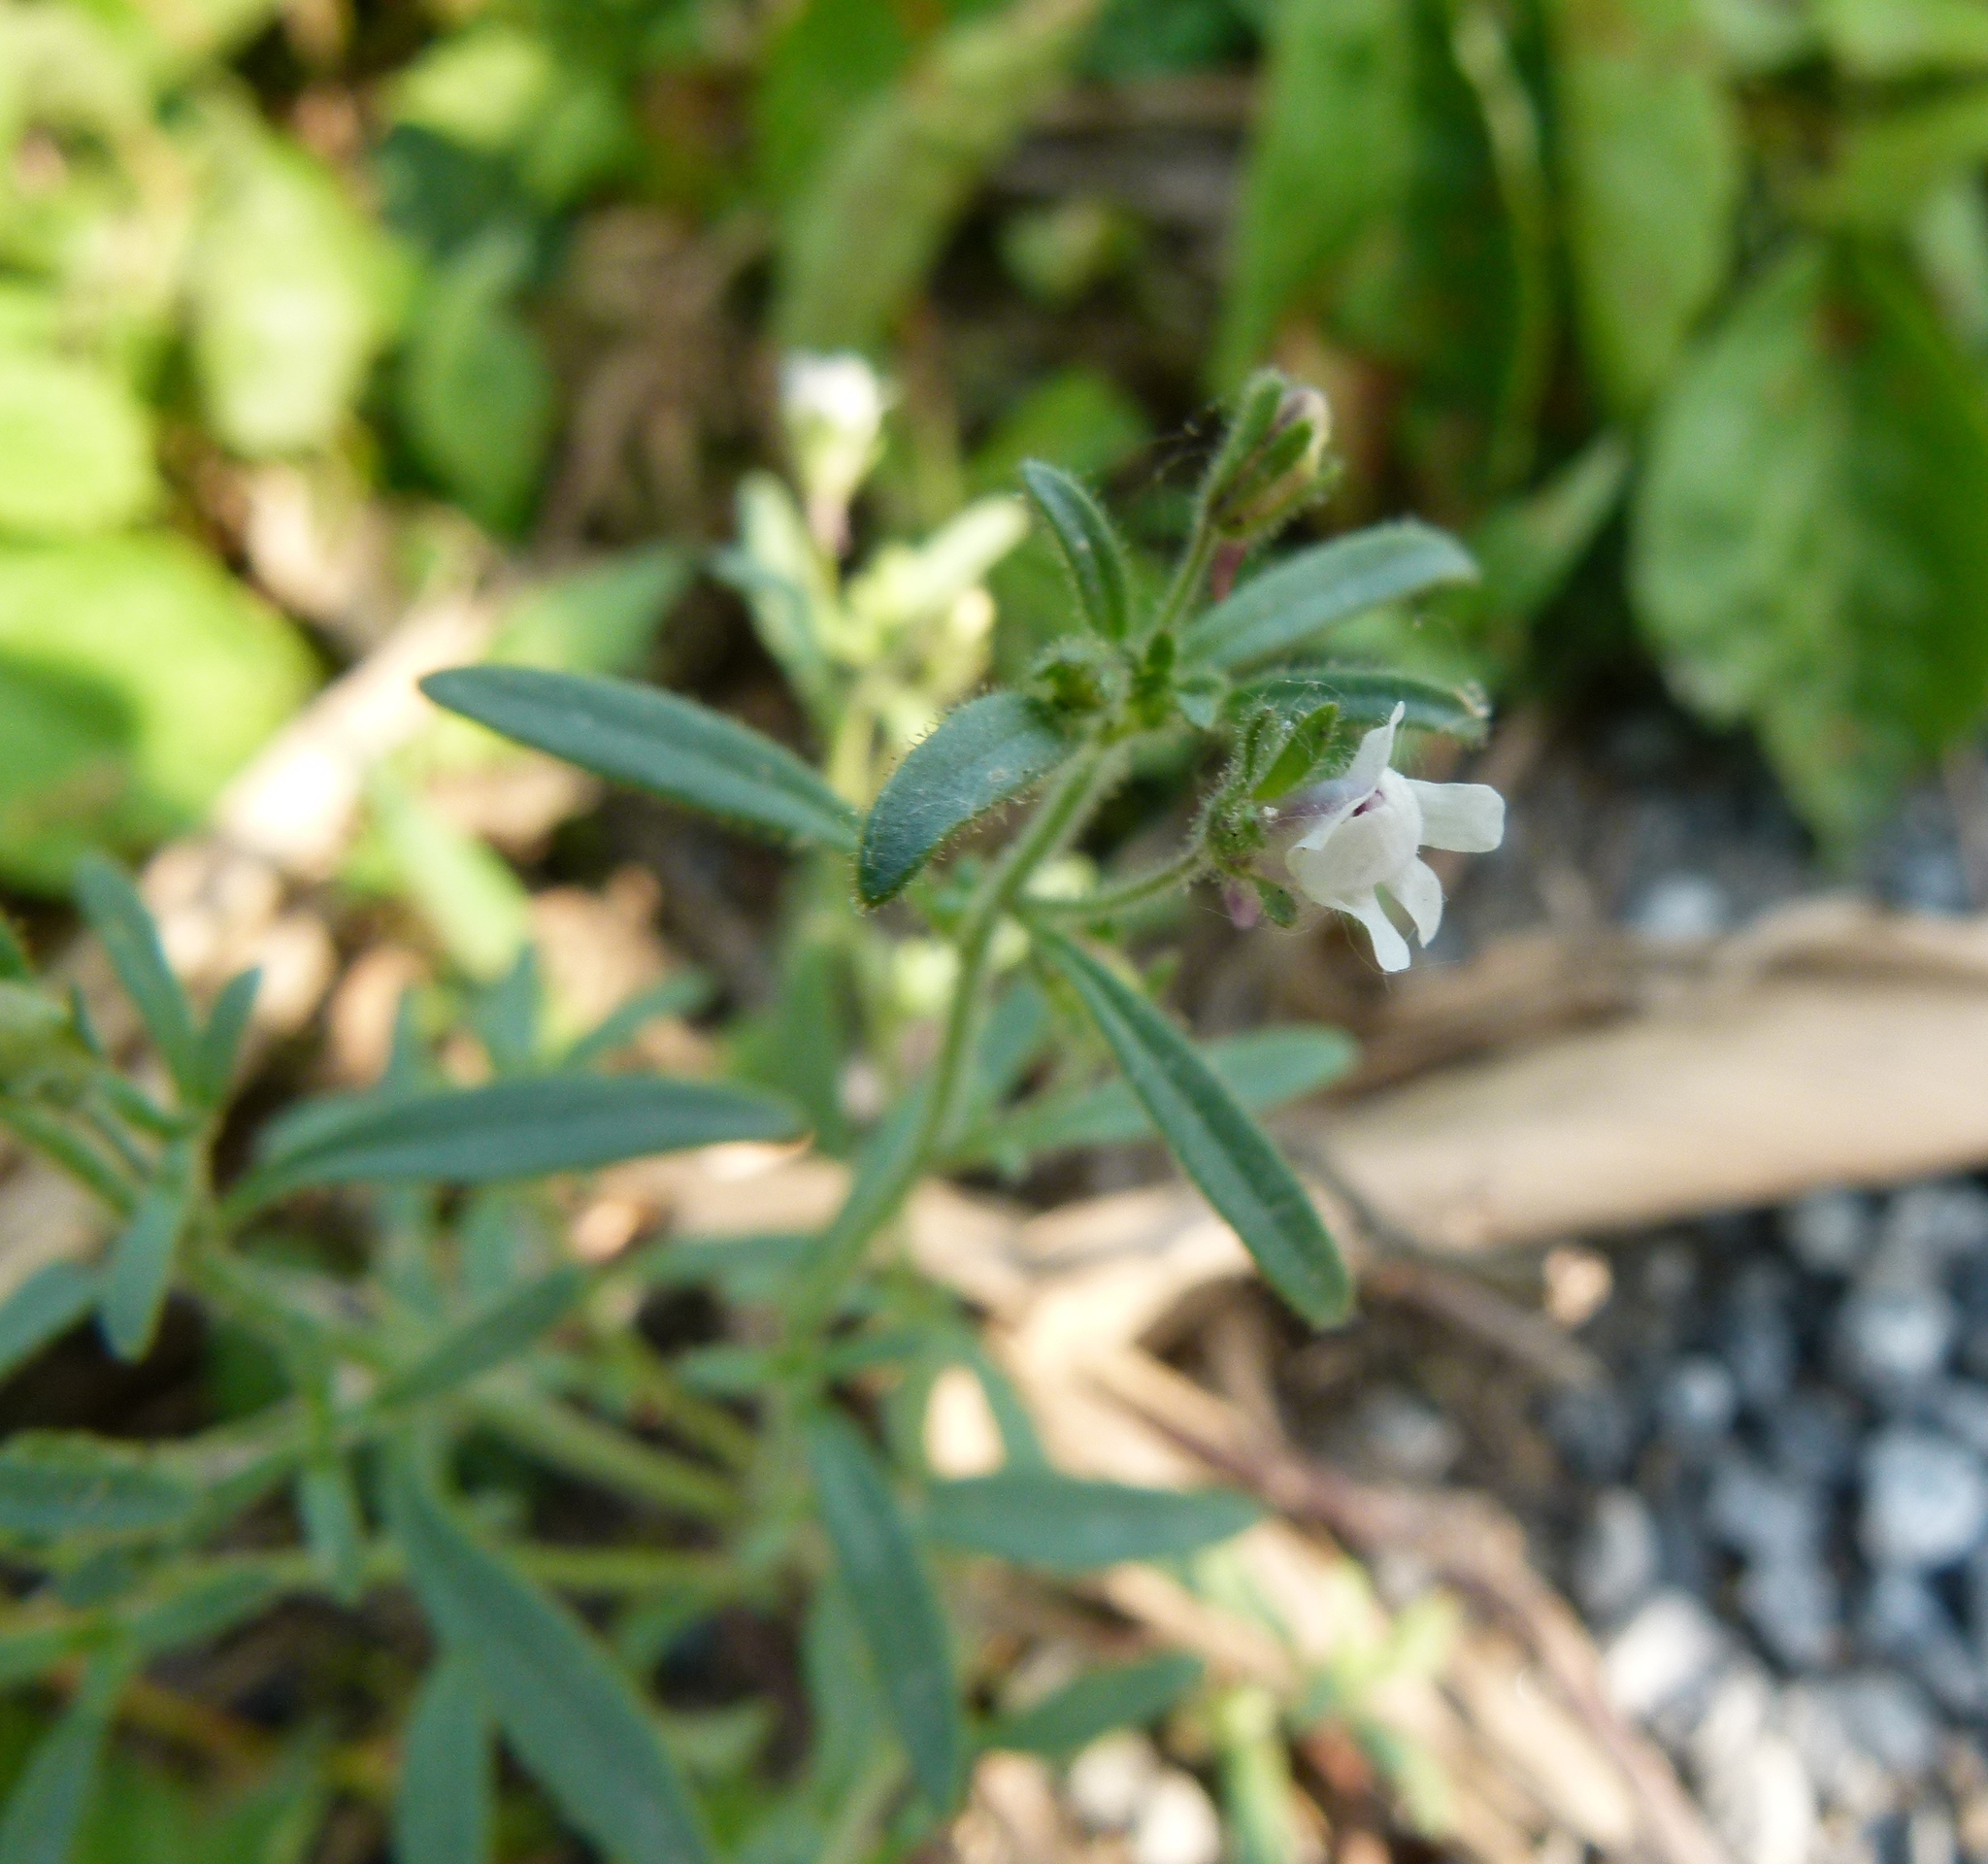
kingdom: Plantae
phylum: Tracheophyta
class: Magnoliopsida
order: Lamiales
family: Plantaginaceae
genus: Chaenorhinum
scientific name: Chaenorhinum minus
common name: Dwarf snapdragon
